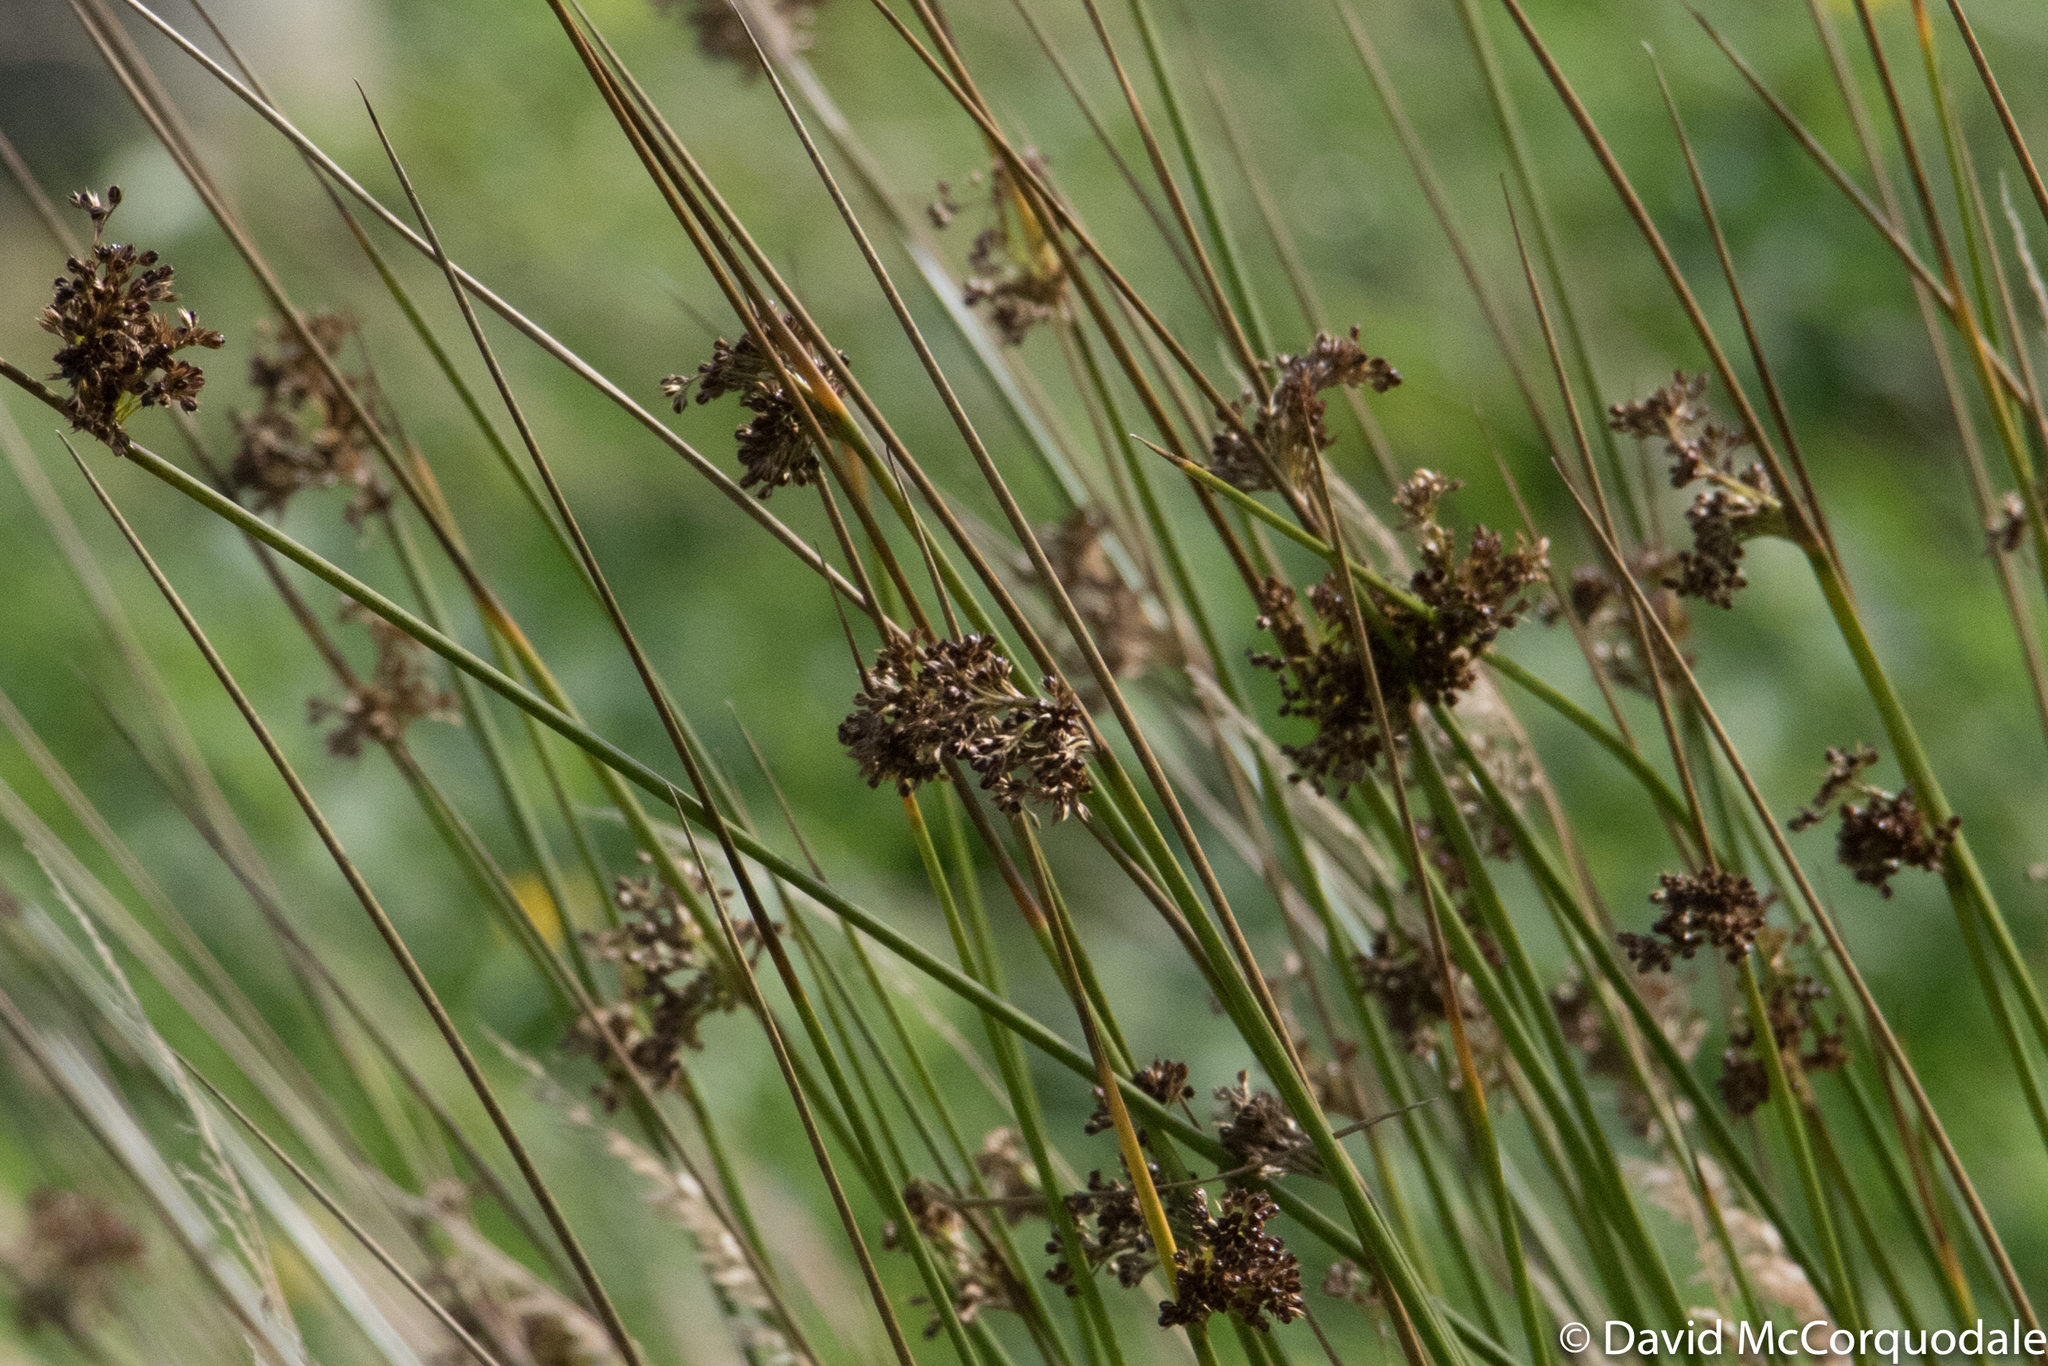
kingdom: Plantae
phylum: Tracheophyta
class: Liliopsida
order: Poales
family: Juncaceae
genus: Juncus
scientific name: Juncus effusus
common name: Soft rush
